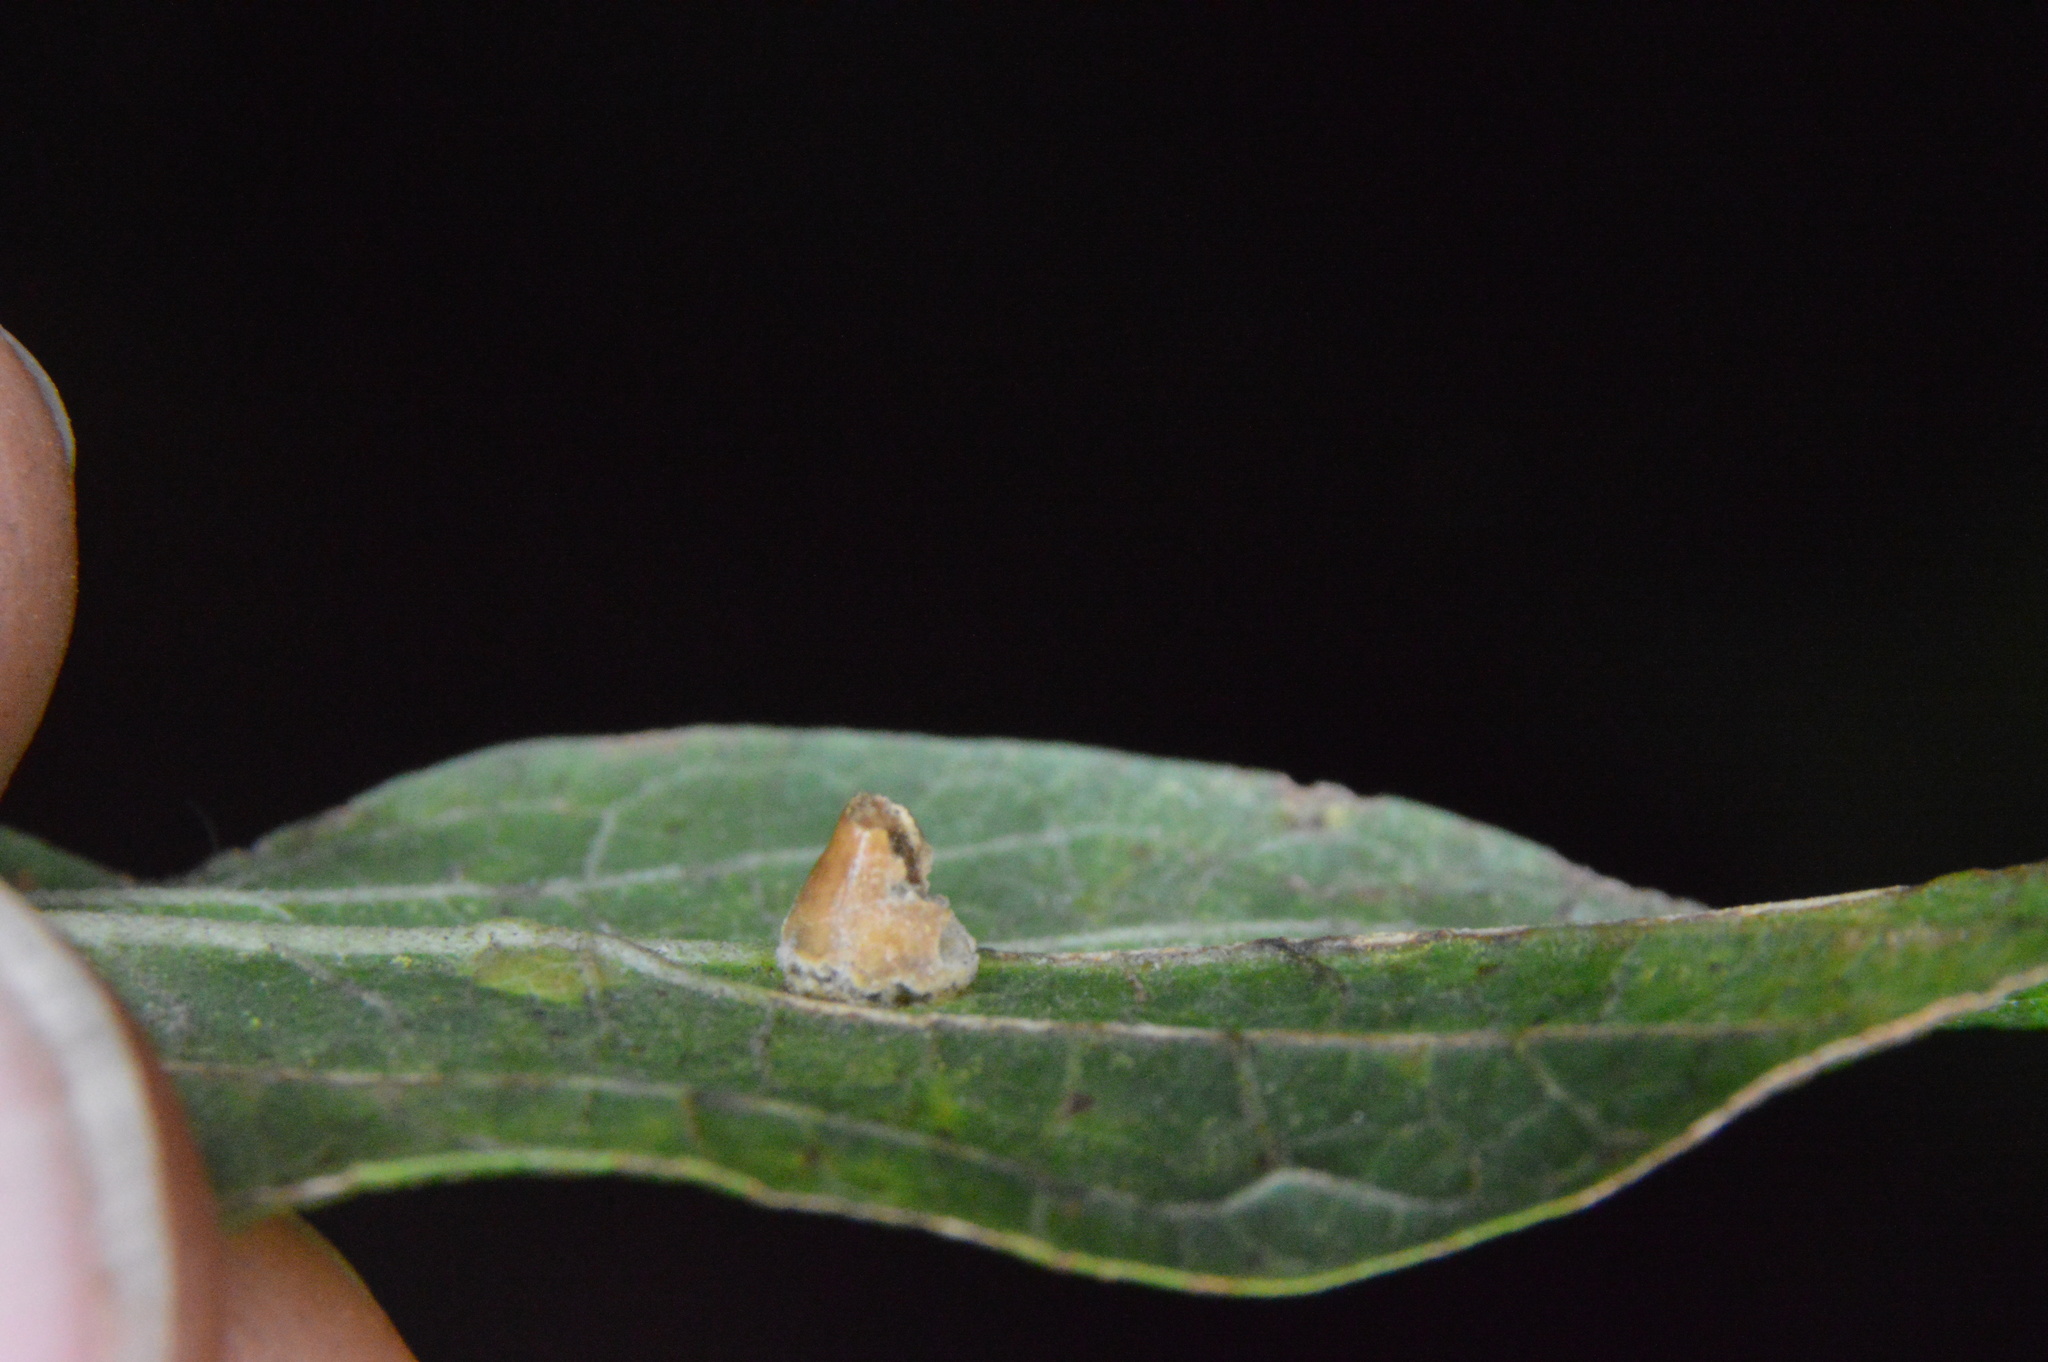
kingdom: Animalia
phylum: Arthropoda
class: Insecta
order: Diptera
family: Cecidomyiidae
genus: Celticecis
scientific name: Celticecis spiniformis
